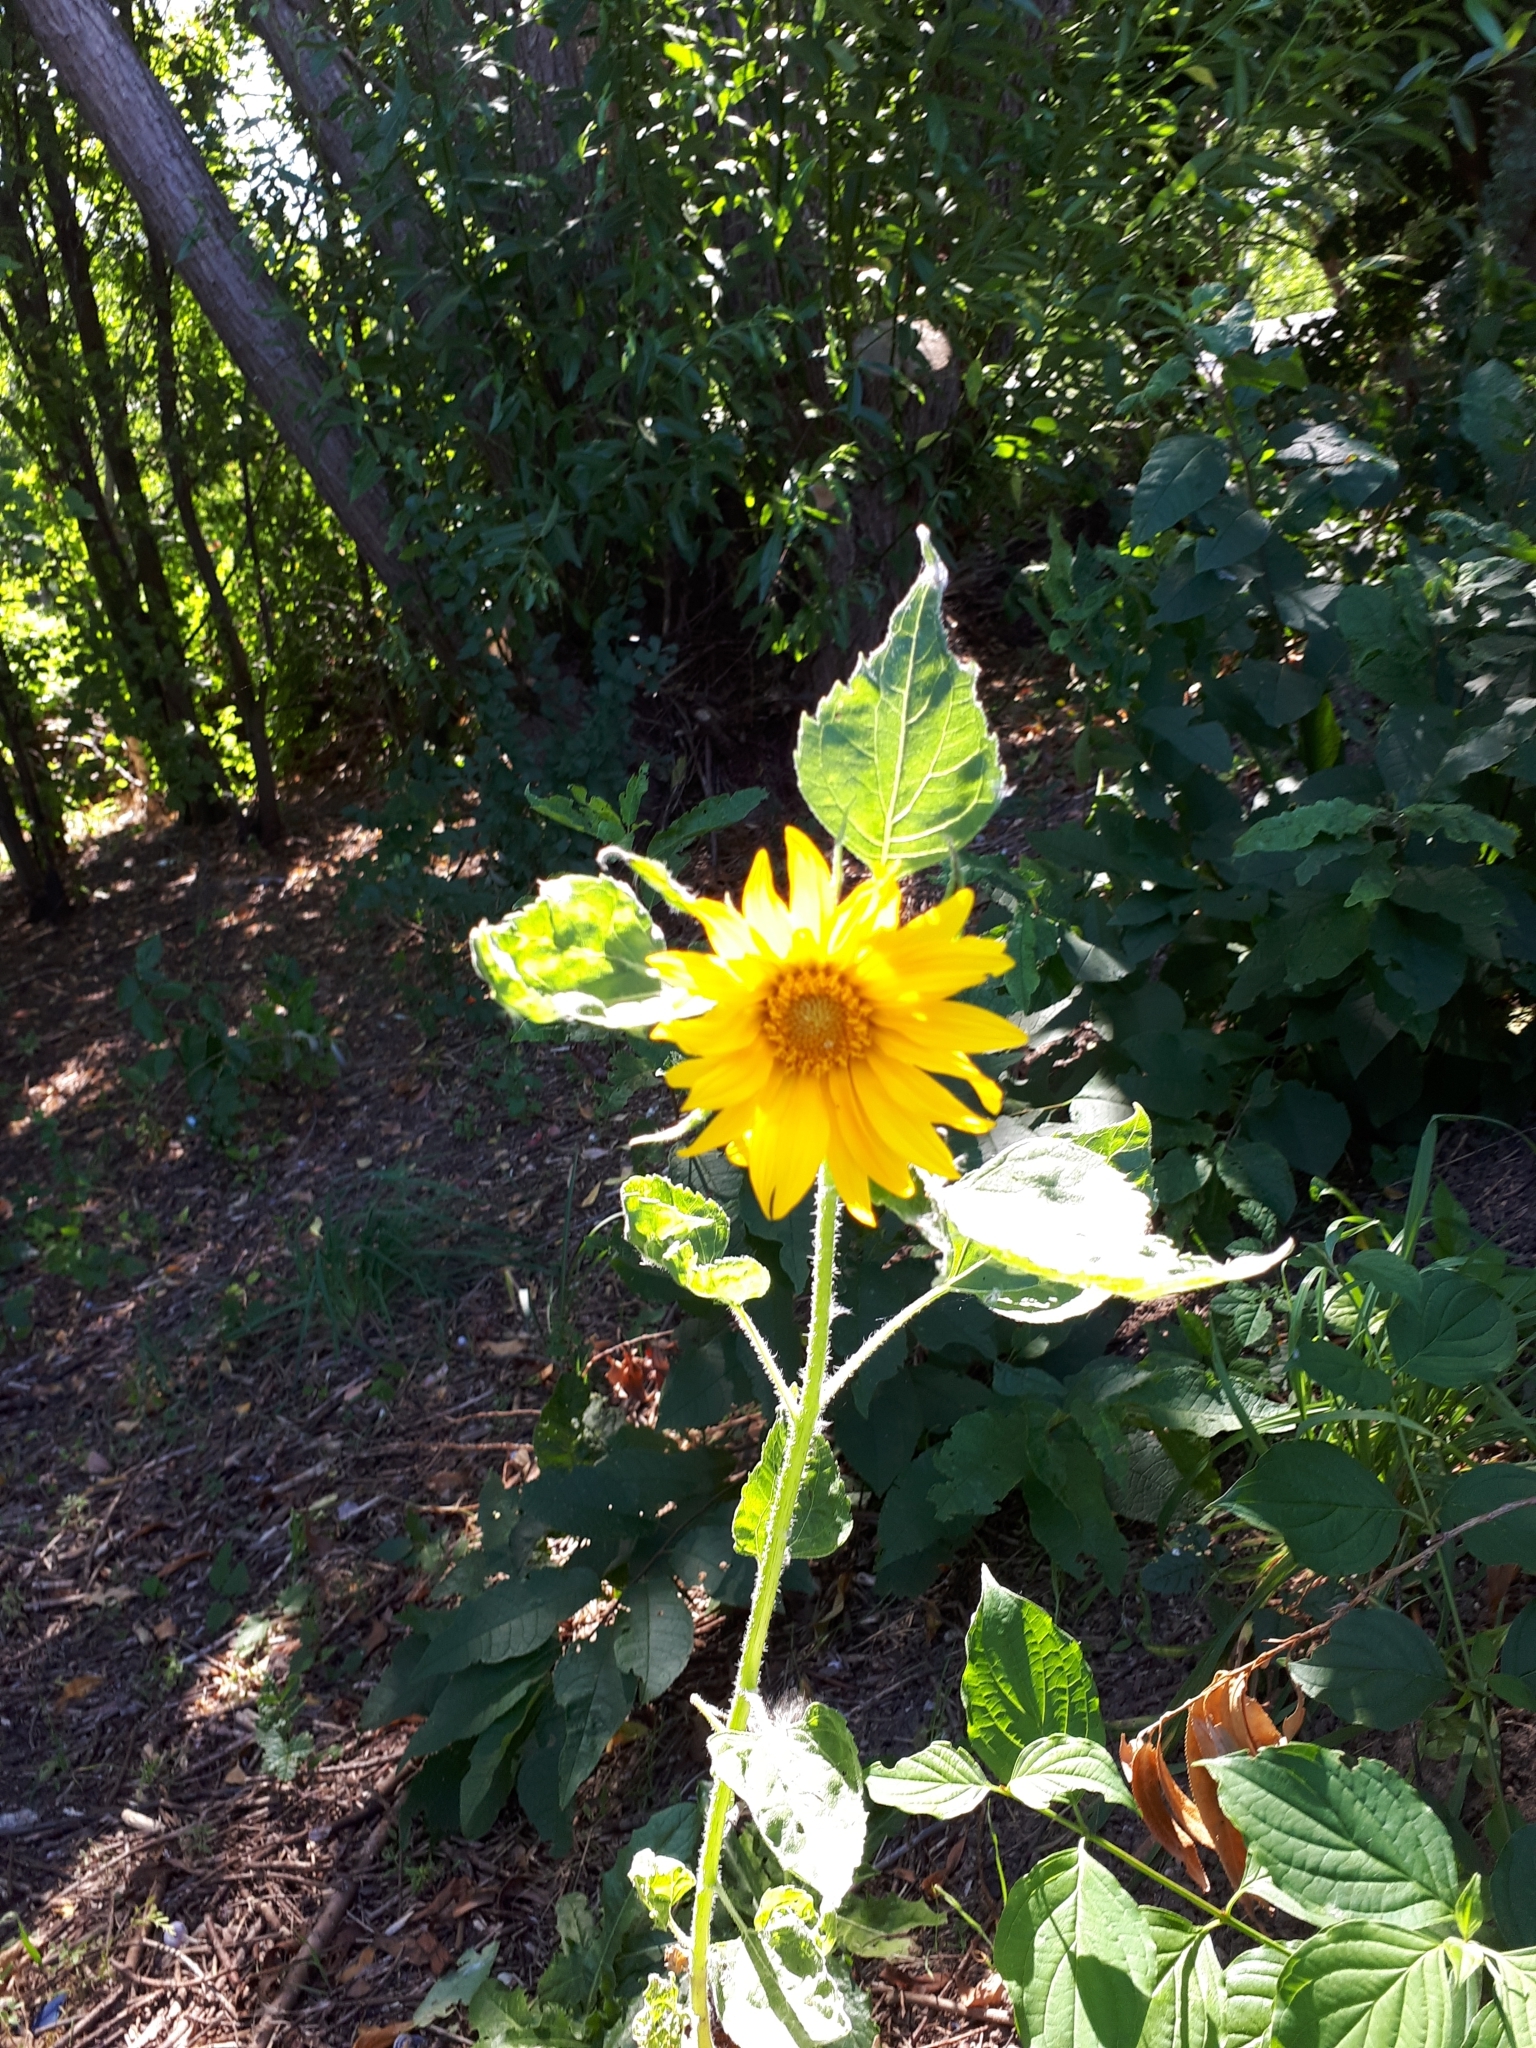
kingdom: Plantae
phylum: Tracheophyta
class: Magnoliopsida
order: Asterales
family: Asteraceae
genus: Helianthus
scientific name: Helianthus annuus
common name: Sunflower
